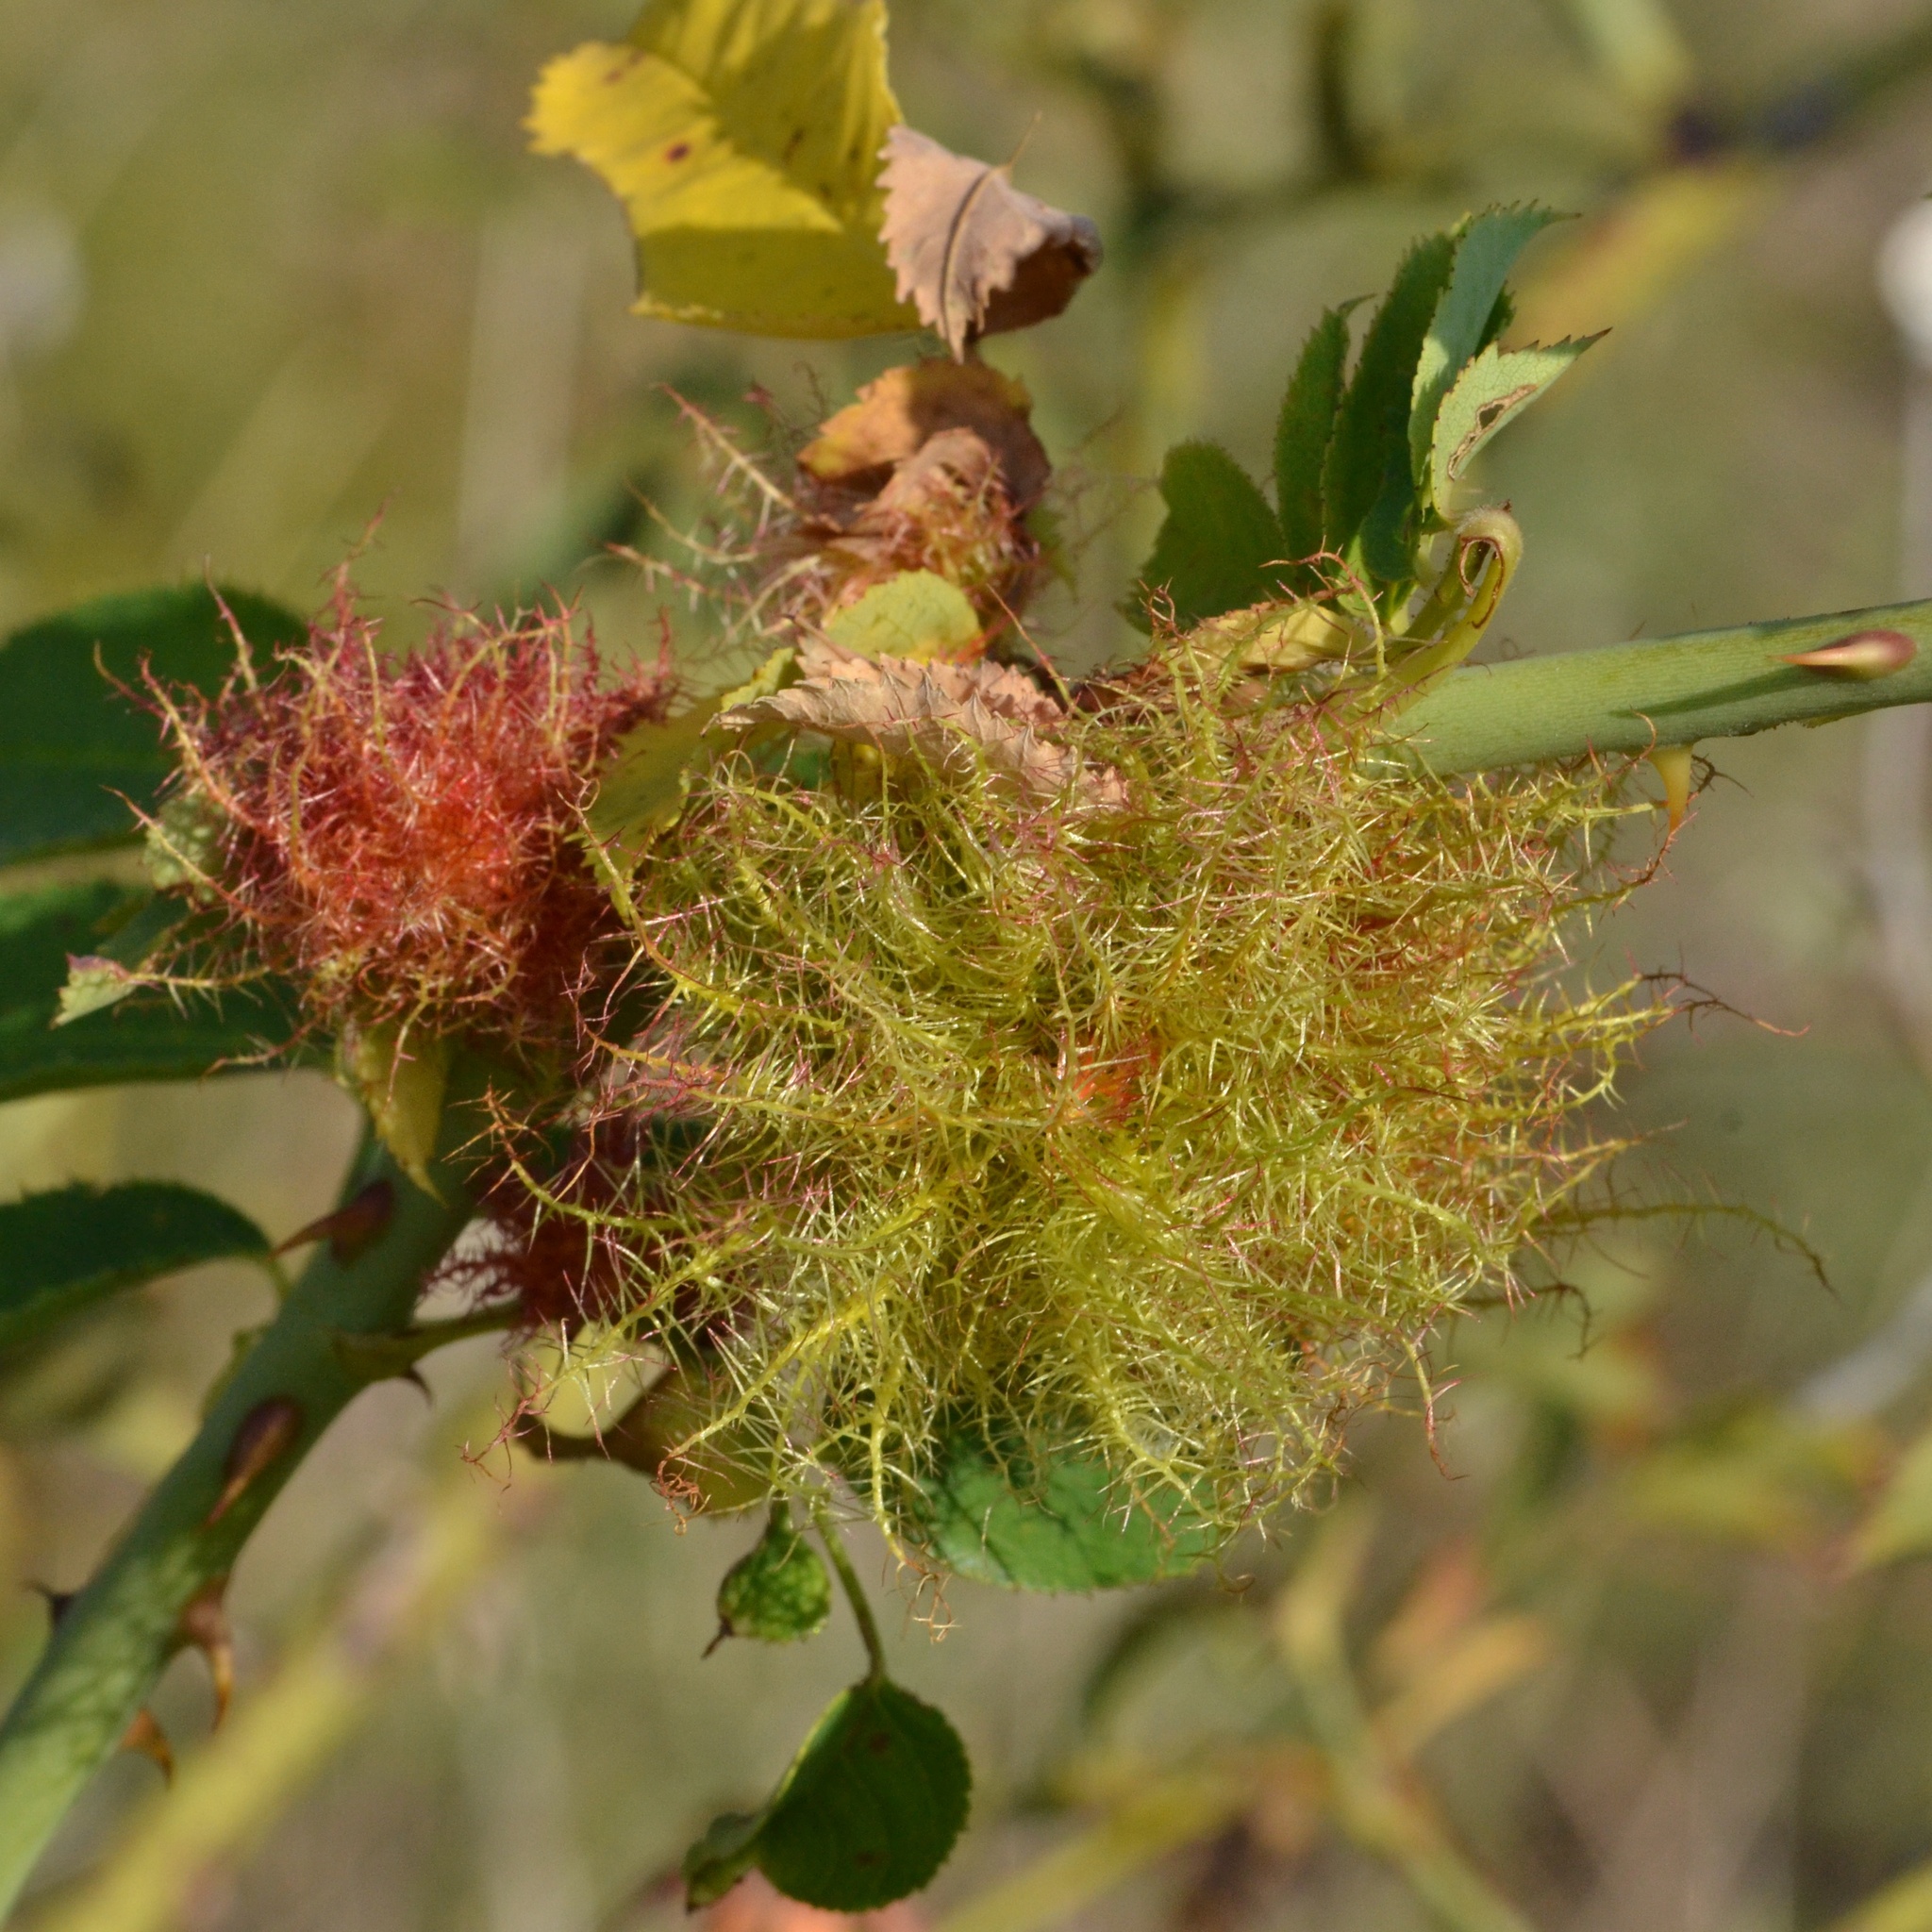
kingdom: Animalia
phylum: Arthropoda
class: Insecta
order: Hymenoptera
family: Cynipidae
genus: Diplolepis
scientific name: Diplolepis rosae
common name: Bedeguar gall
